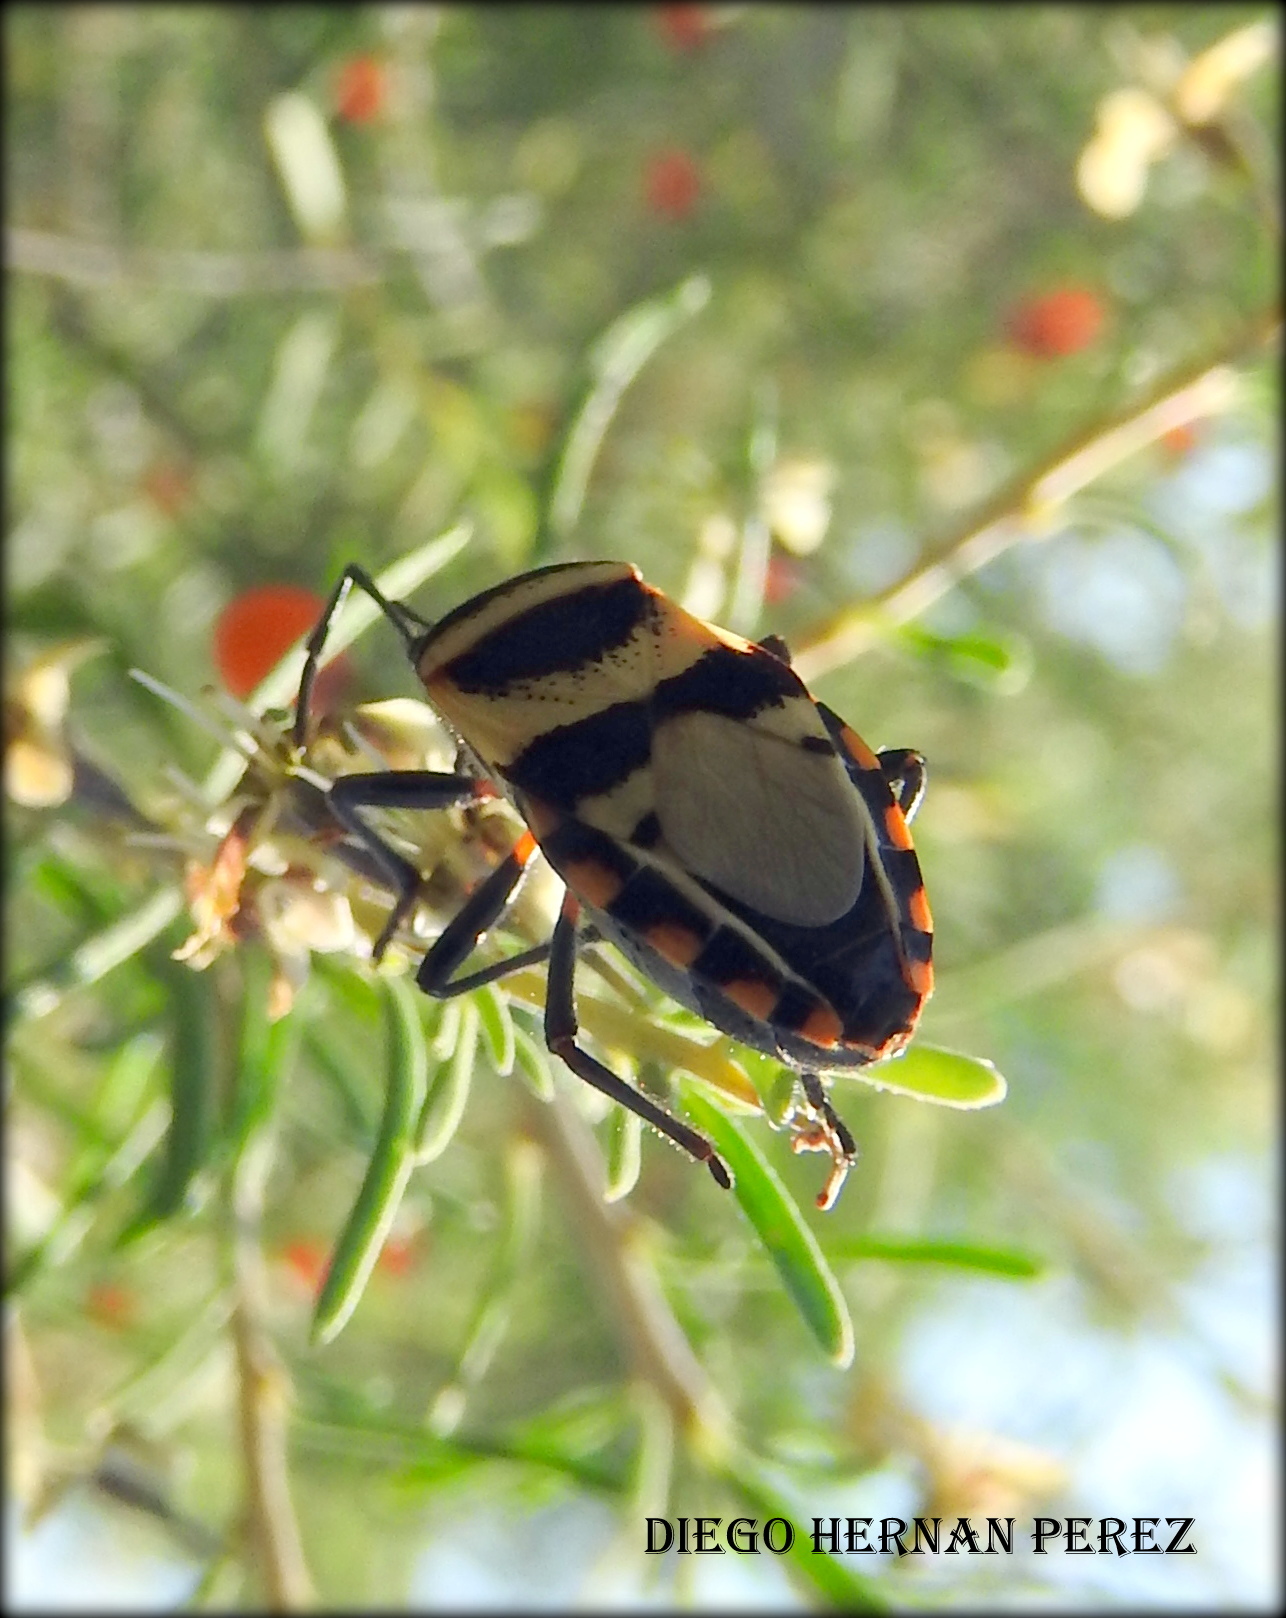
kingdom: Animalia
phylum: Arthropoda
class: Insecta
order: Hemiptera
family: Largidae
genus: Largus
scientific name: Largus fasciatus
